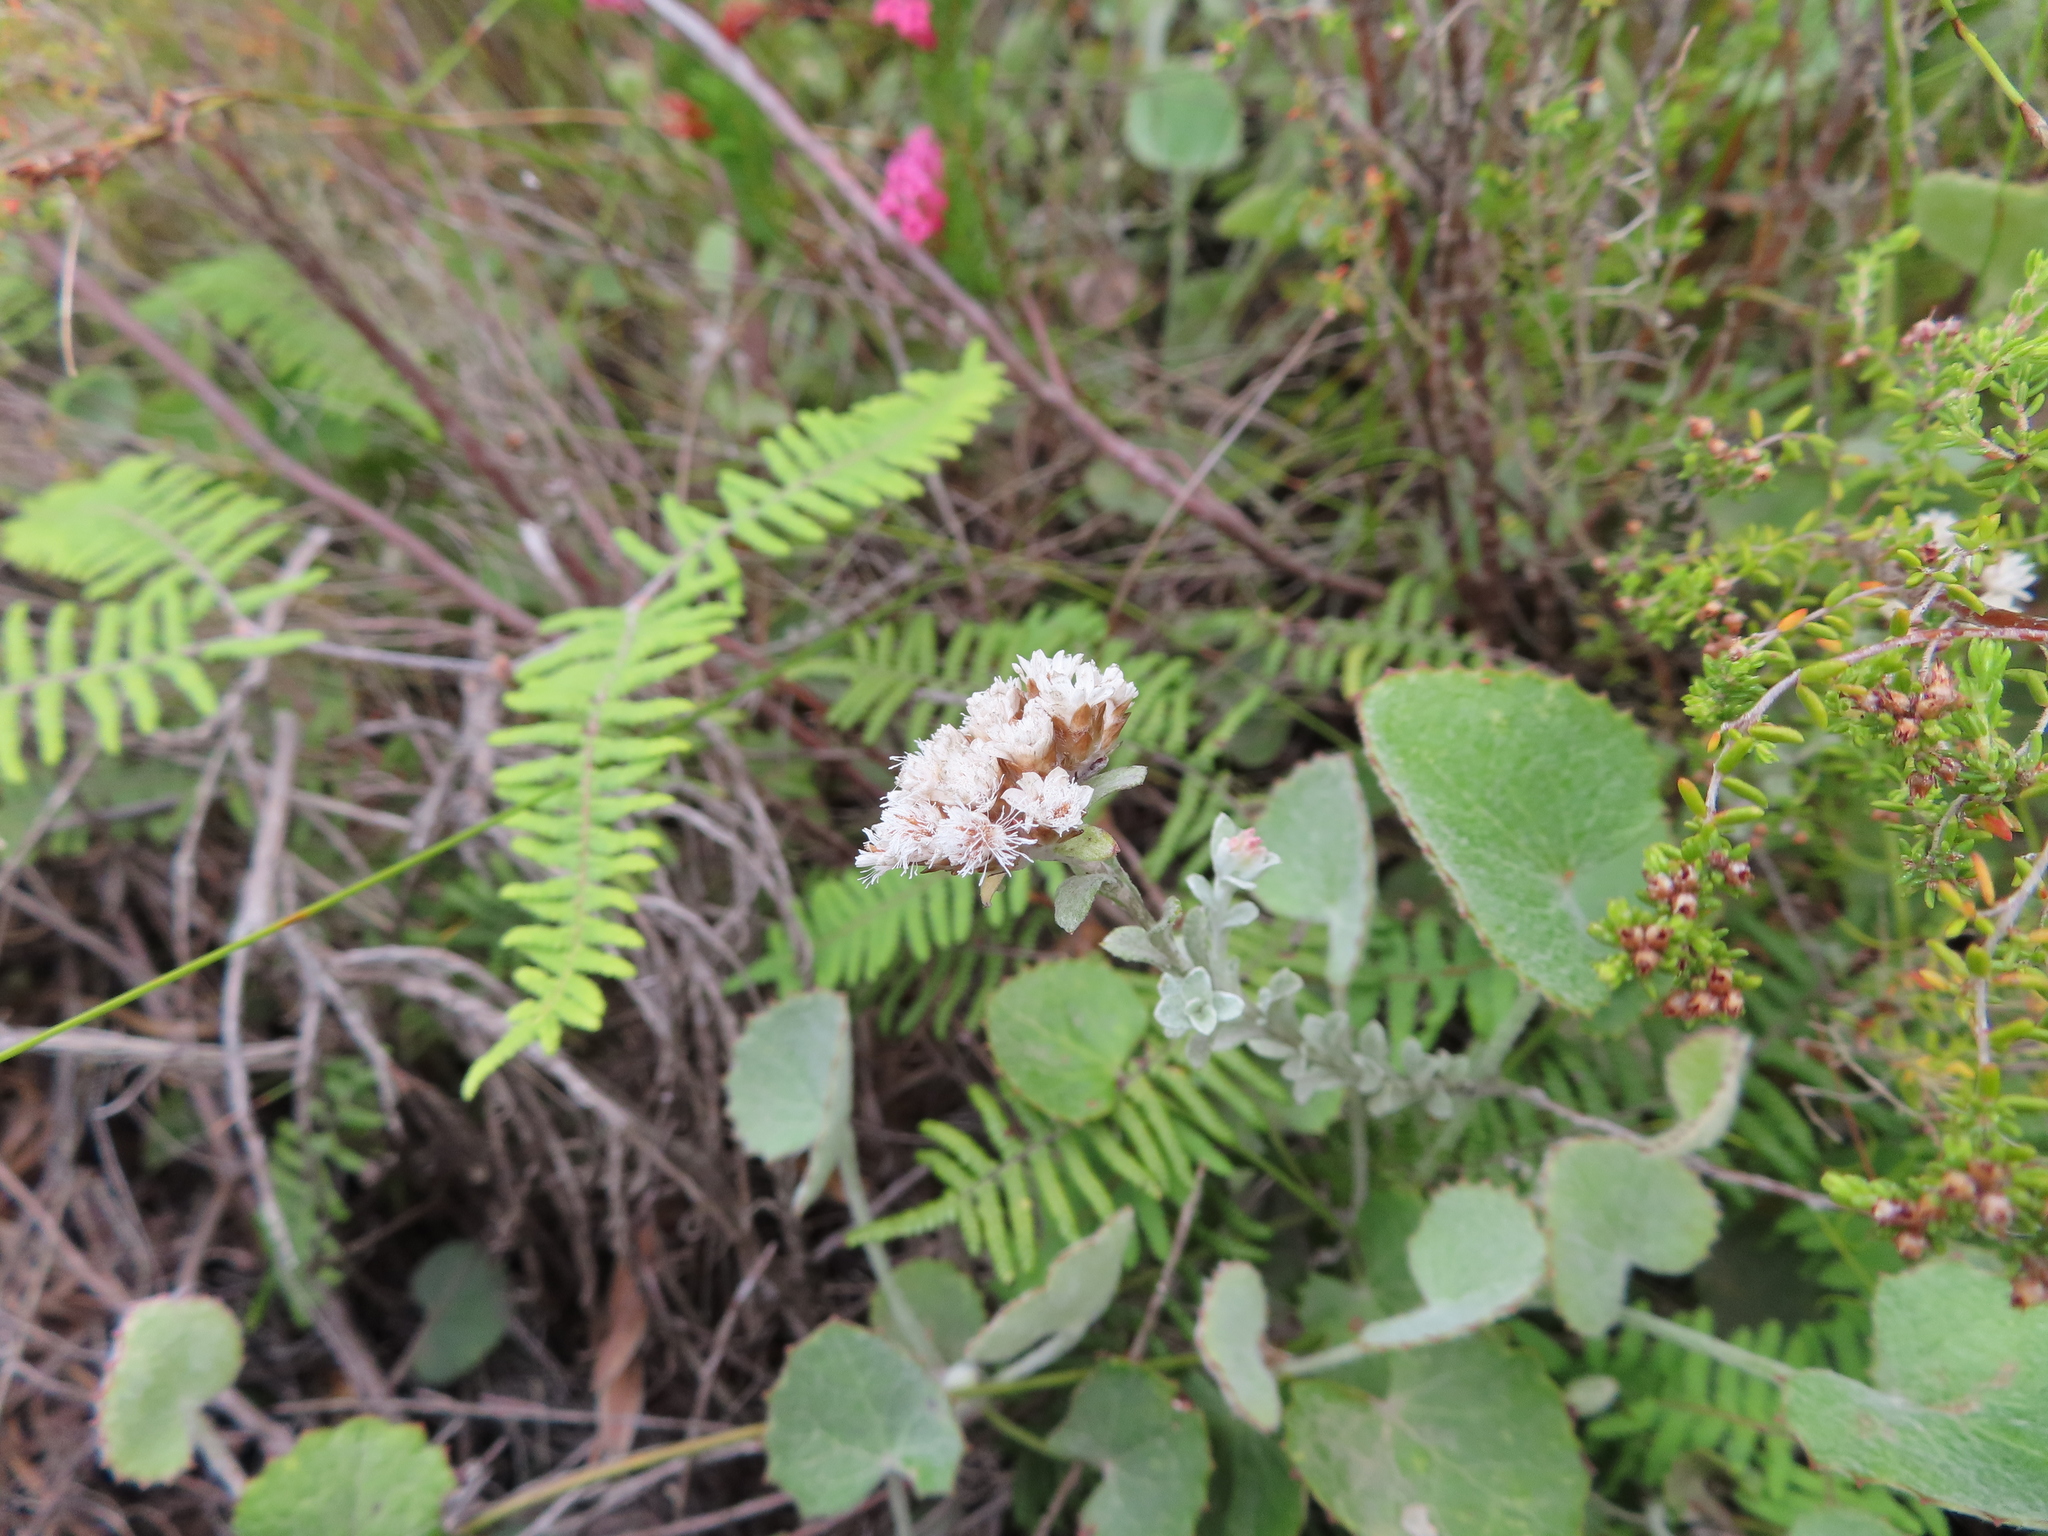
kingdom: Plantae
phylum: Tracheophyta
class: Magnoliopsida
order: Asterales
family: Asteraceae
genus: Langebergia
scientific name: Langebergia canescens
